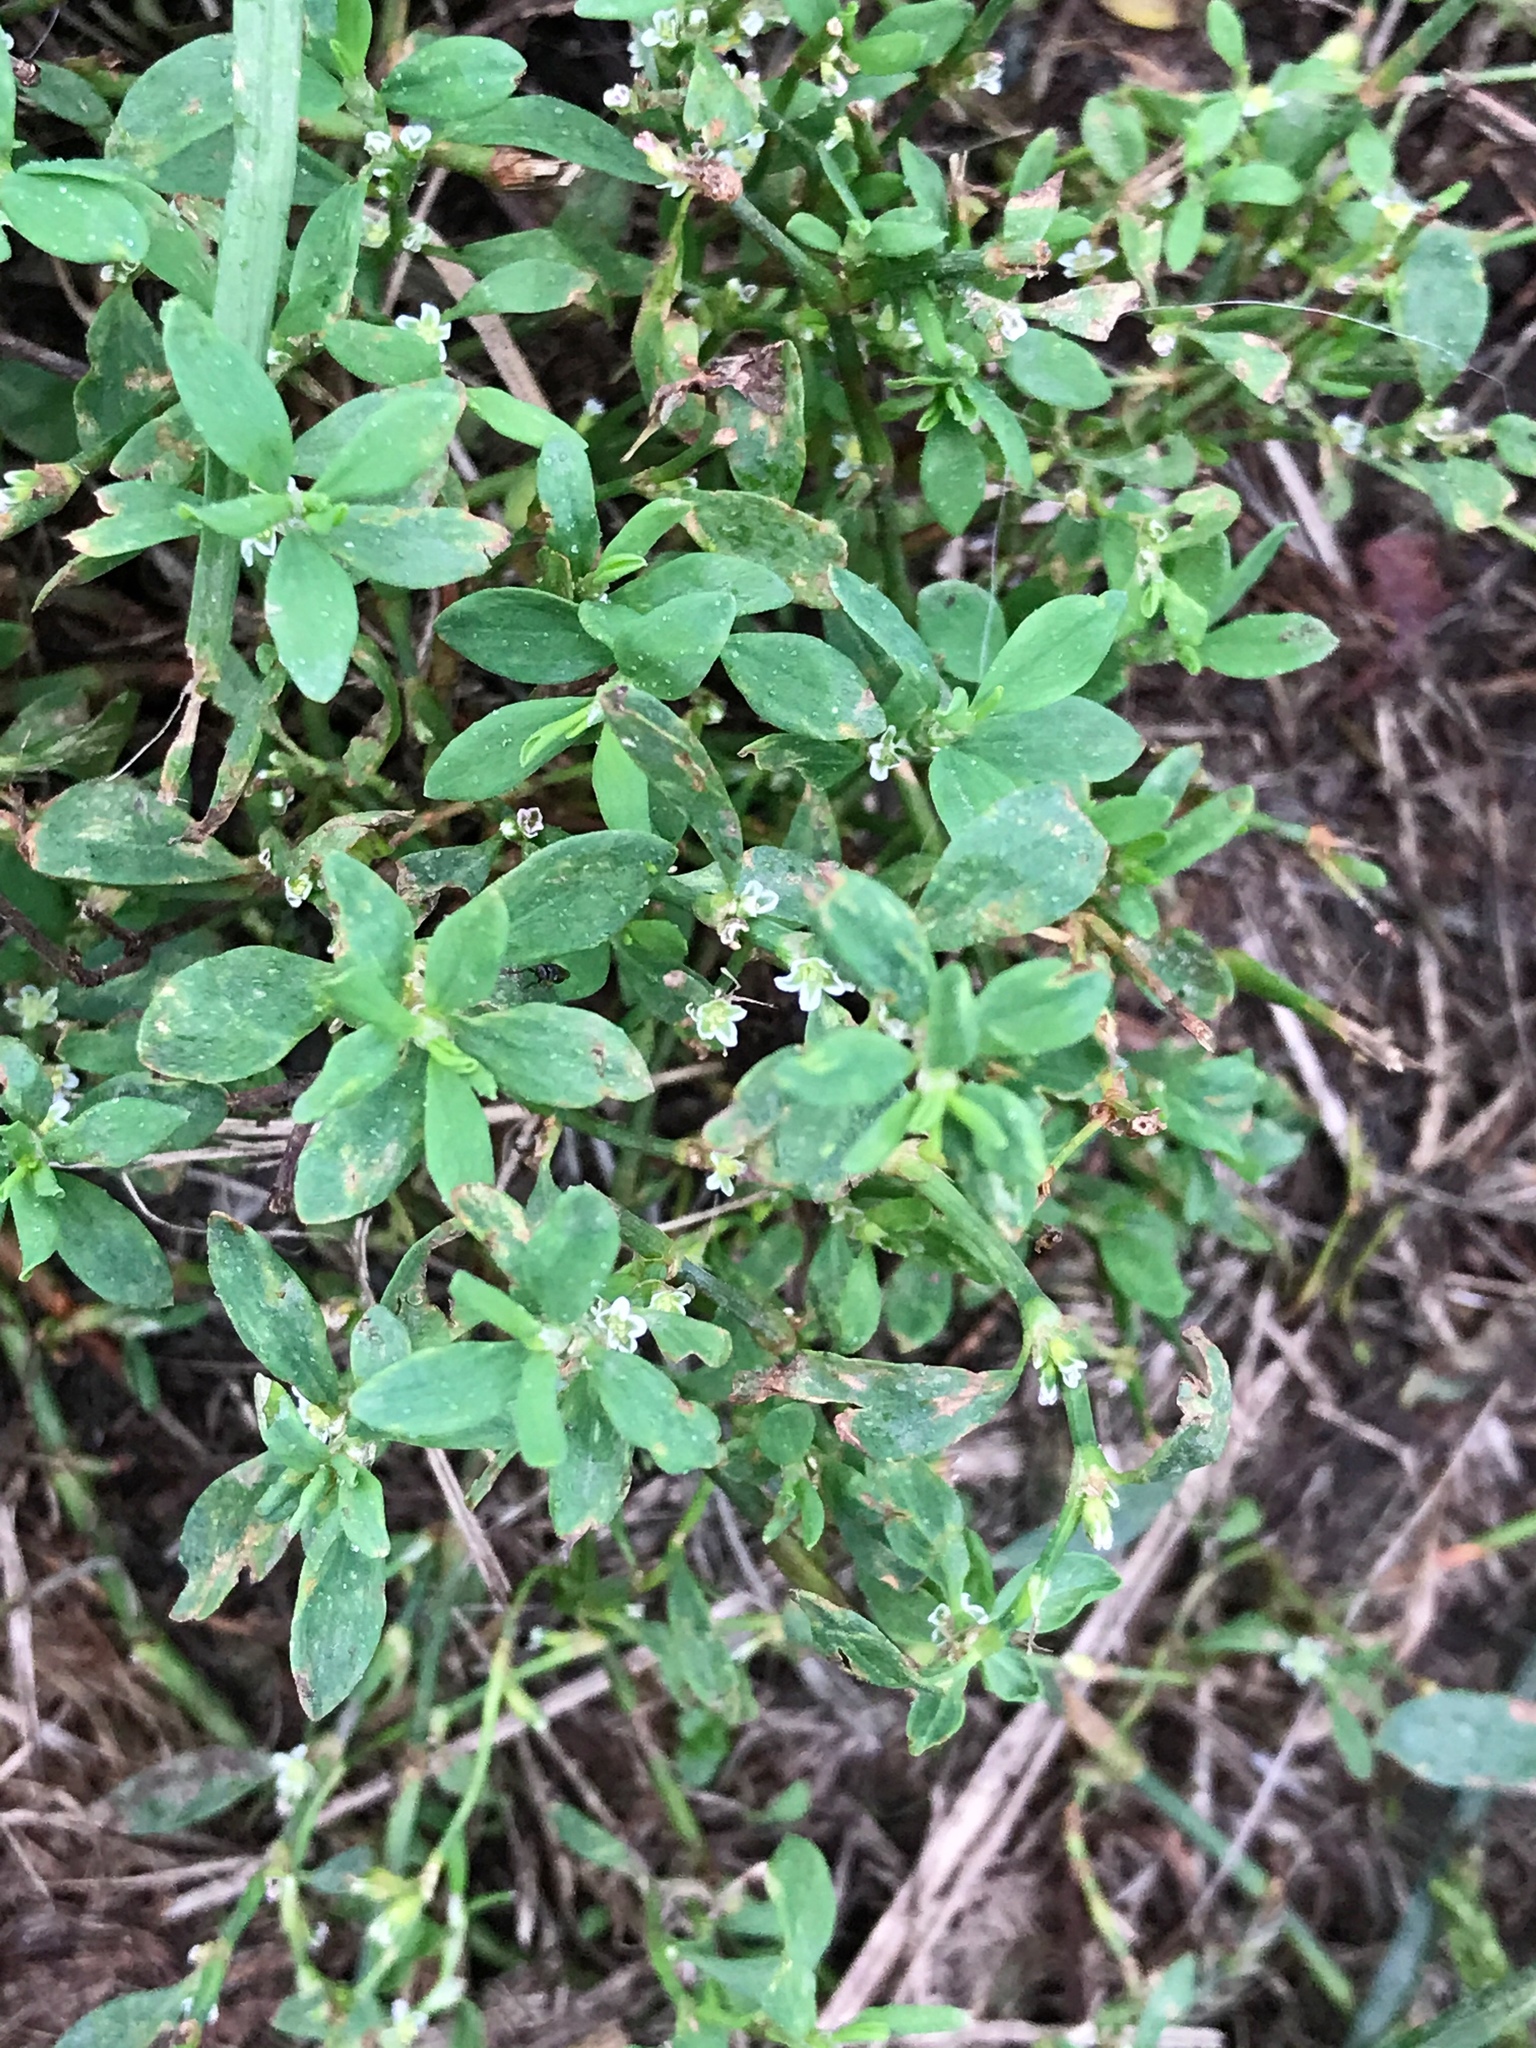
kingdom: Plantae
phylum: Tracheophyta
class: Magnoliopsida
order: Caryophyllales
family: Polygonaceae
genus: Polygonum
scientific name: Polygonum aviculare
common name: Prostrate knotweed
